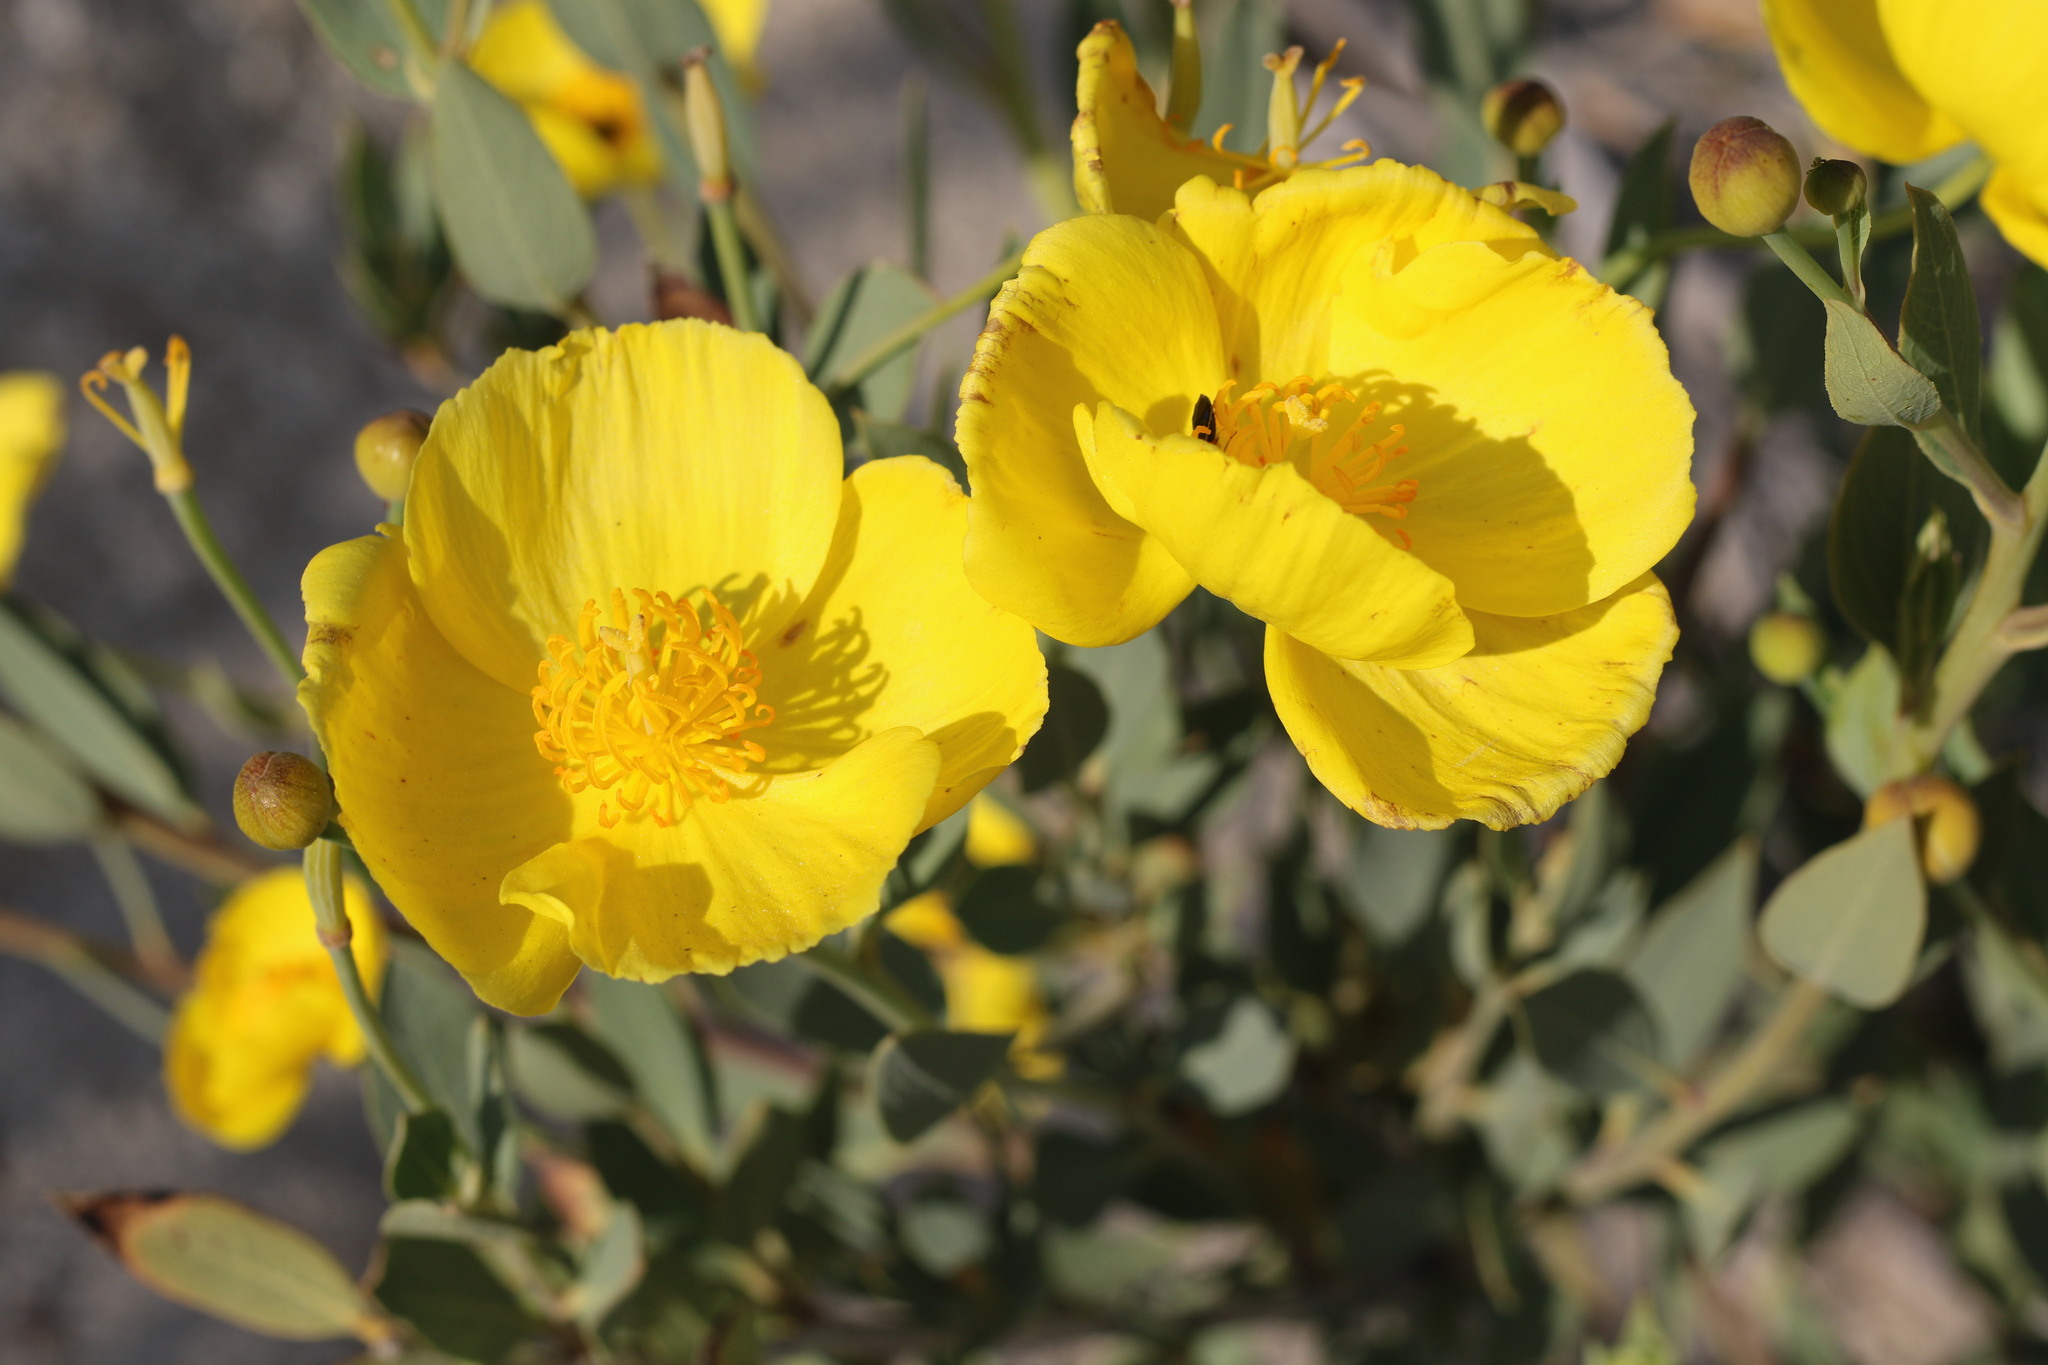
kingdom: Plantae
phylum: Tracheophyta
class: Magnoliopsida
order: Ranunculales
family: Papaveraceae
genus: Dendromecon
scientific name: Dendromecon rigida
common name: Tree poppy
